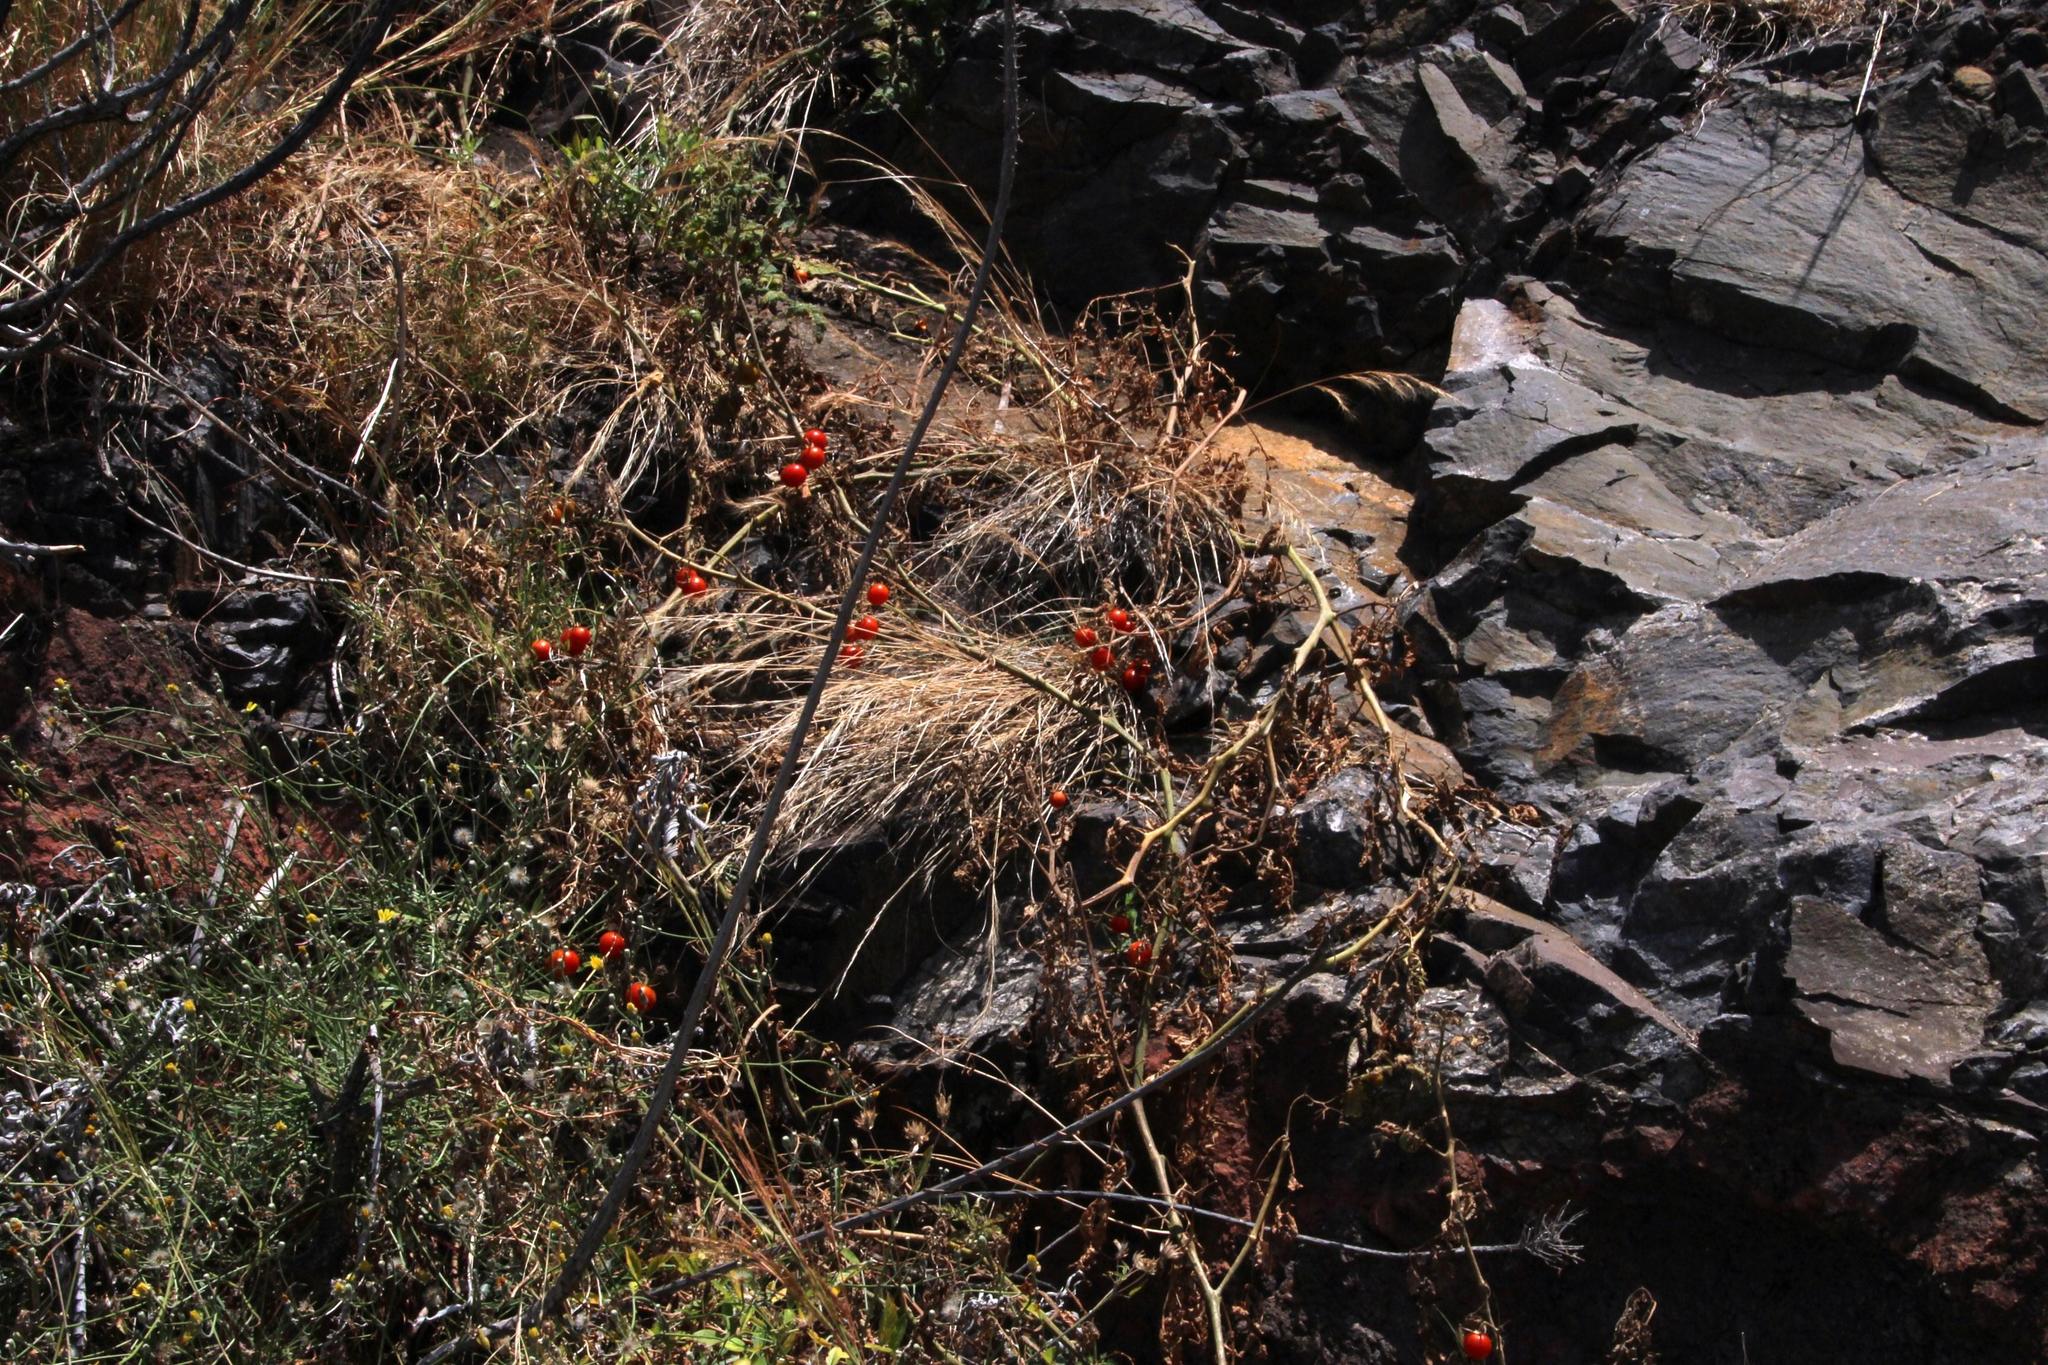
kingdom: Plantae
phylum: Tracheophyta
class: Magnoliopsida
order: Solanales
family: Solanaceae
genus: Solanum
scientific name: Solanum lycopersicum
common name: Garden tomato
